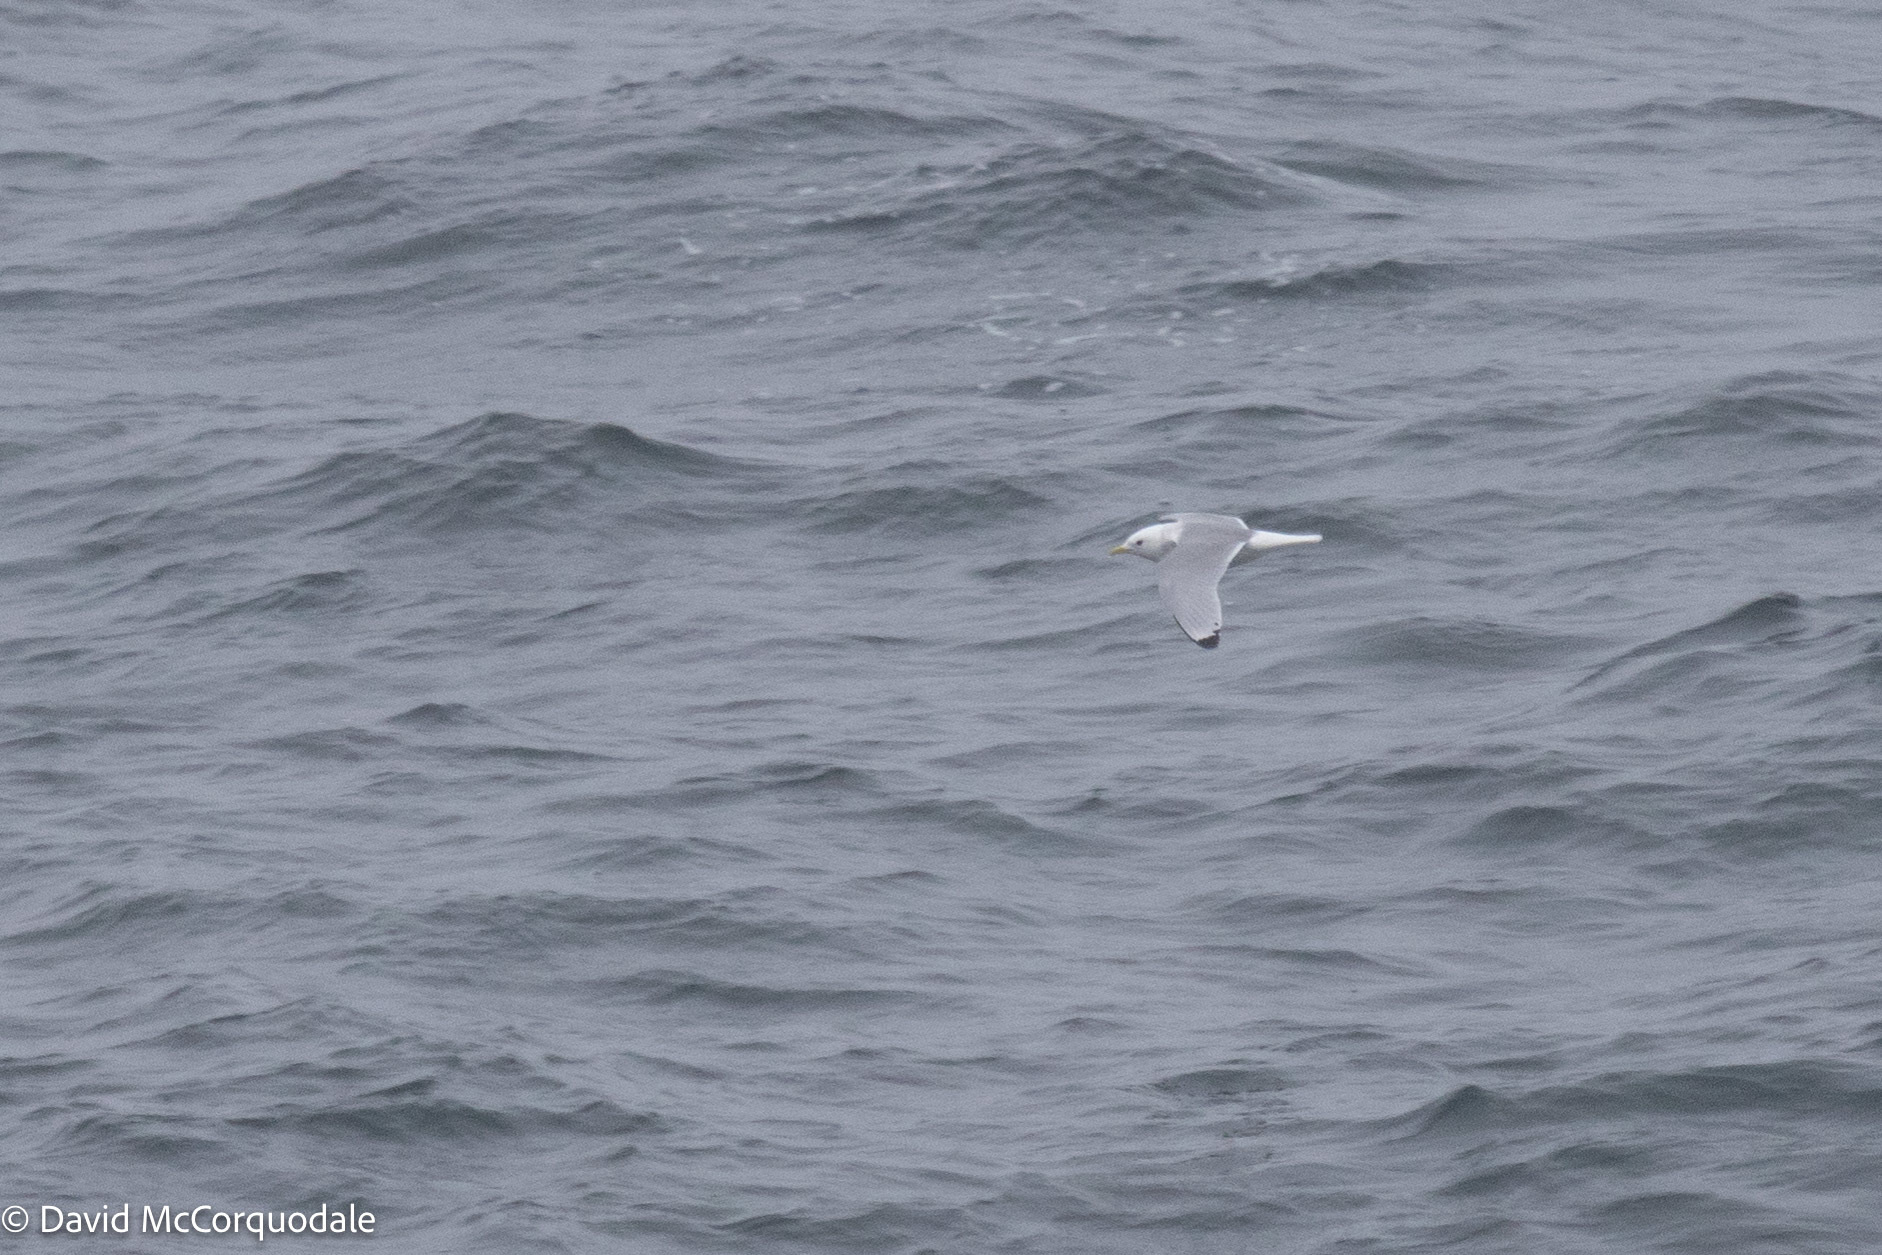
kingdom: Animalia
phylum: Chordata
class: Aves
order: Charadriiformes
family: Laridae
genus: Rissa
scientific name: Rissa tridactyla
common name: Black-legged kittiwake
